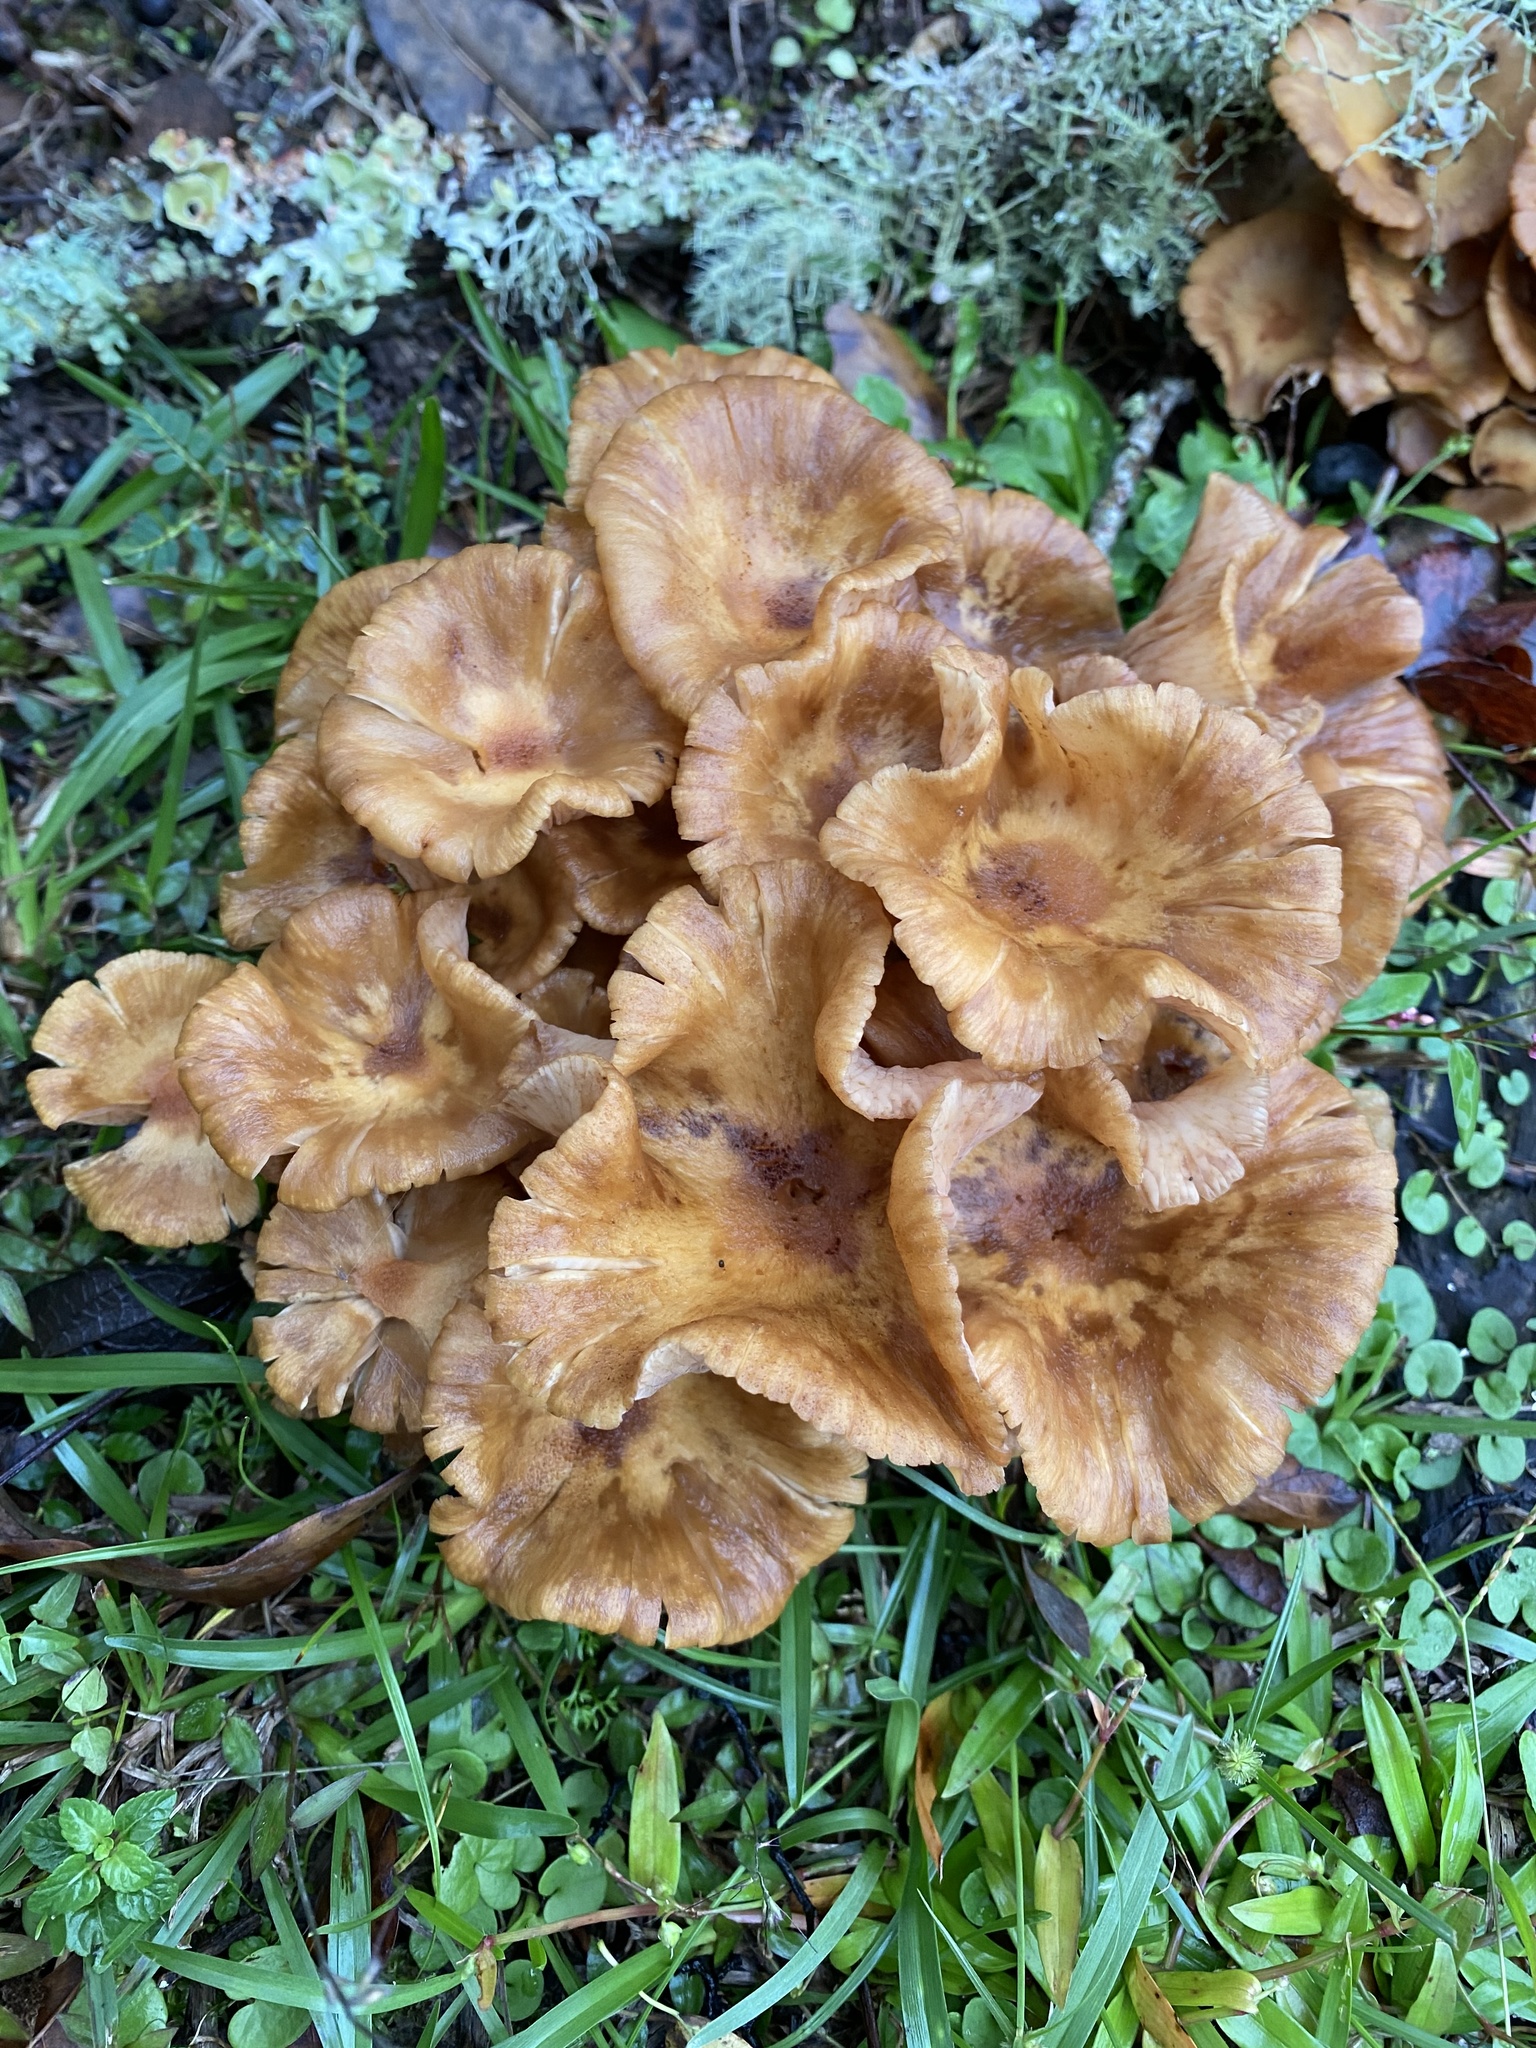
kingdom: Fungi
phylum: Basidiomycota
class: Agaricomycetes
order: Agaricales
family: Physalacriaceae
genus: Desarmillaria
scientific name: Desarmillaria caespitosa
